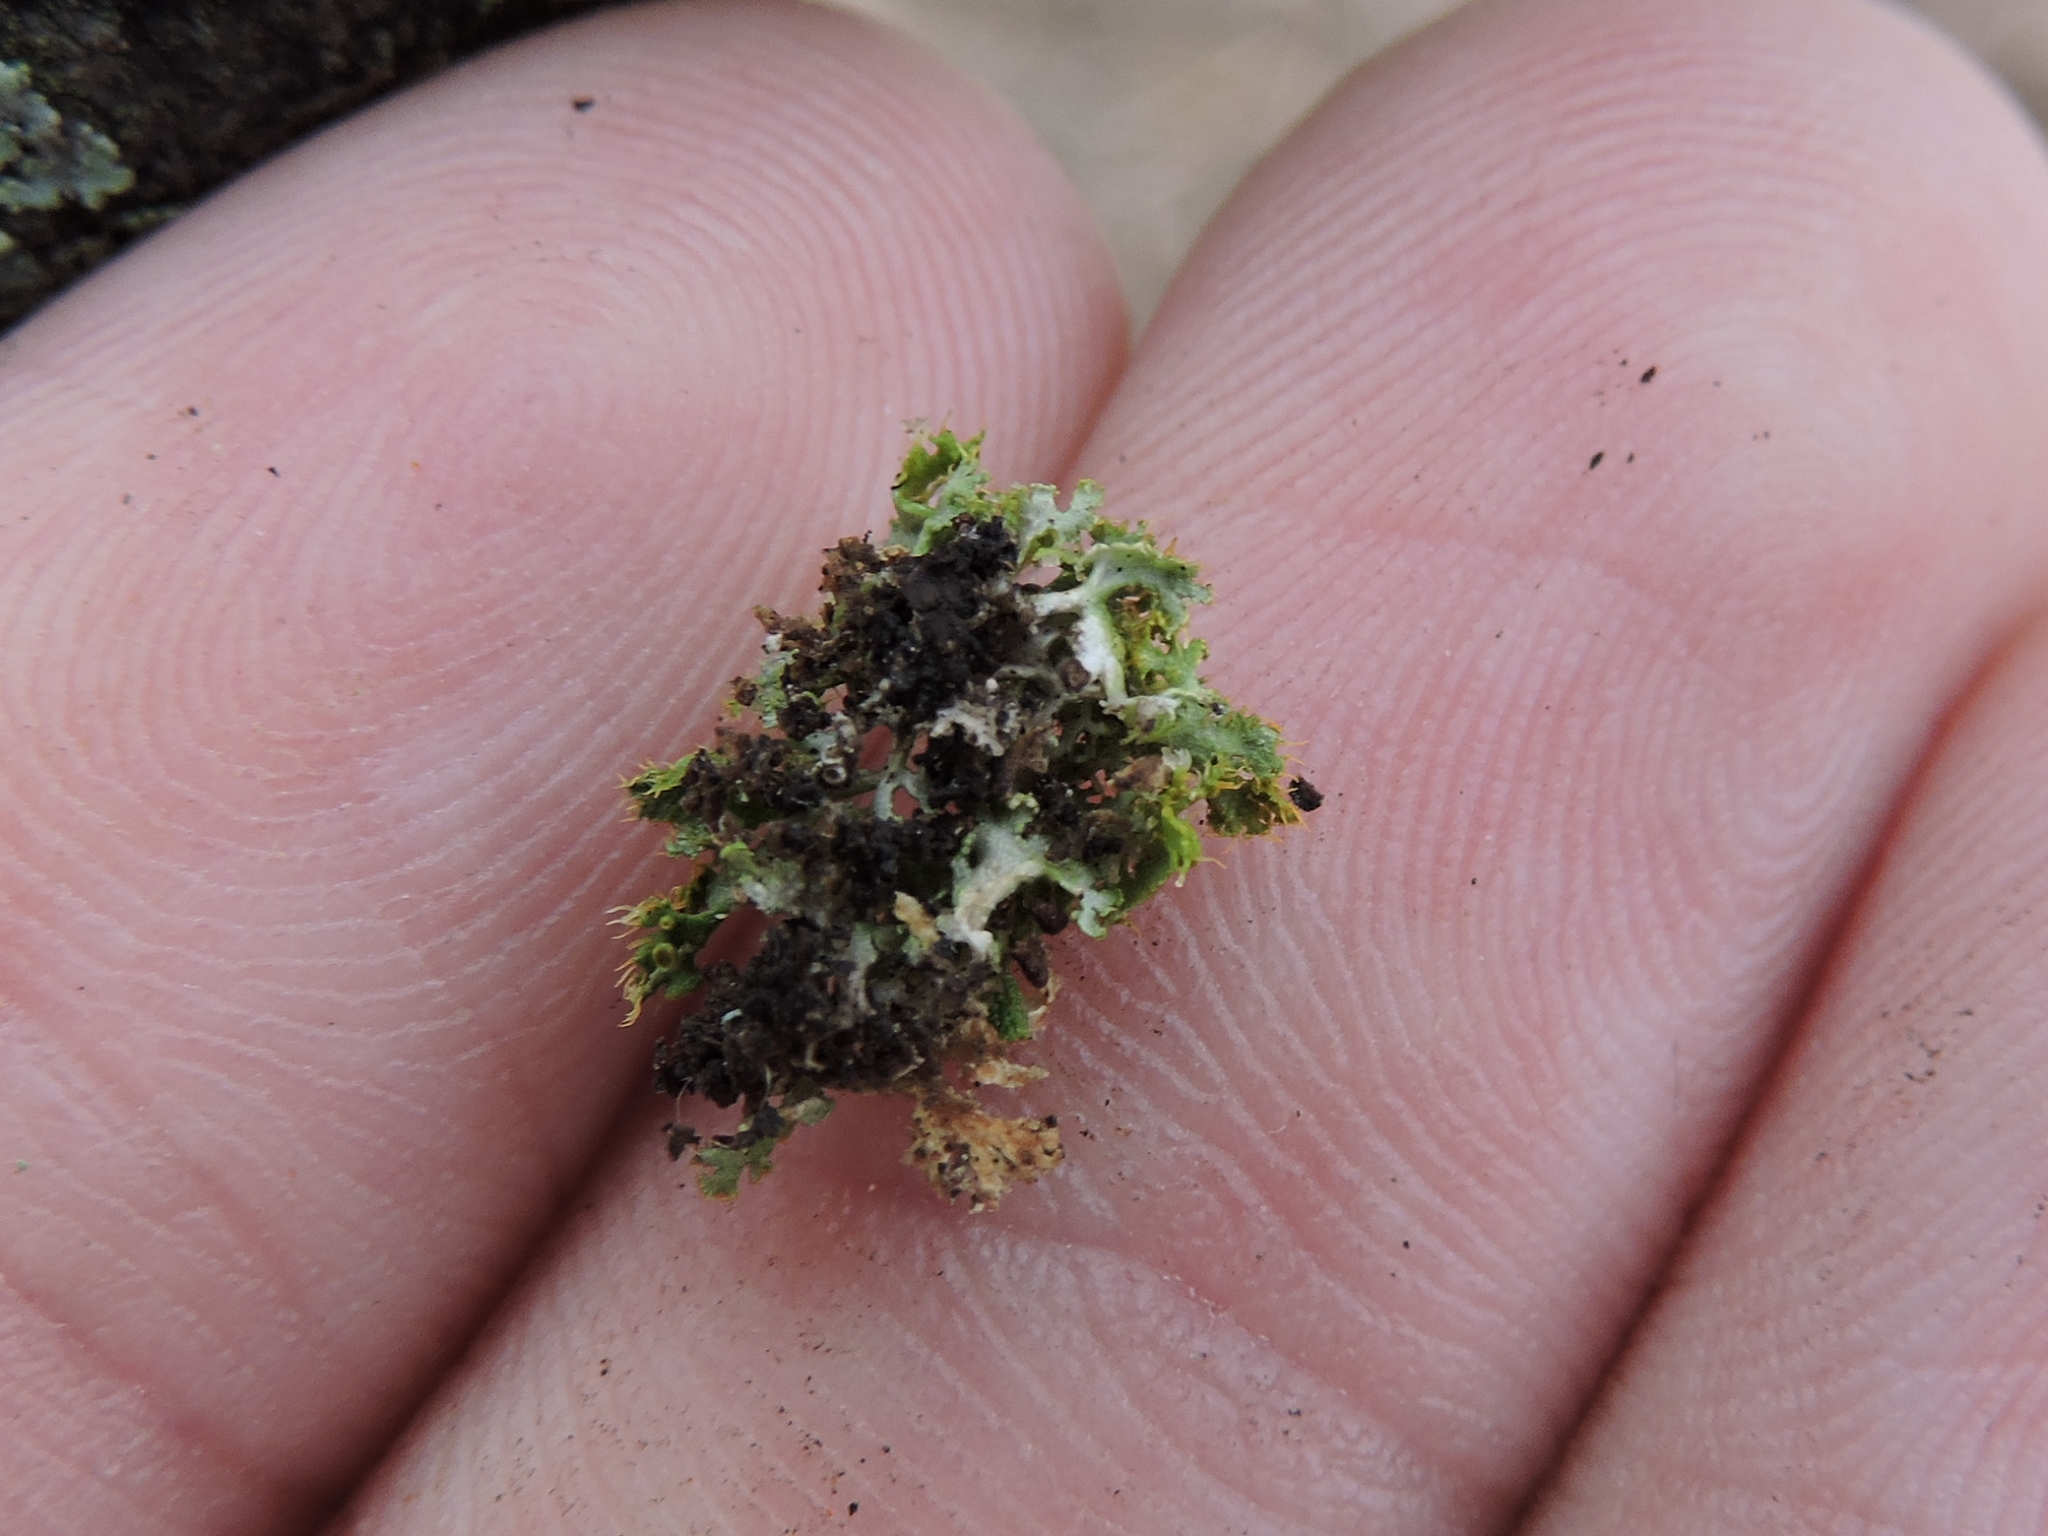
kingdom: Fungi
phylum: Ascomycota
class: Lecanoromycetes
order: Teloschistales
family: Teloschistaceae
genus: Niorma
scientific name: Niorma chrysophthalma
